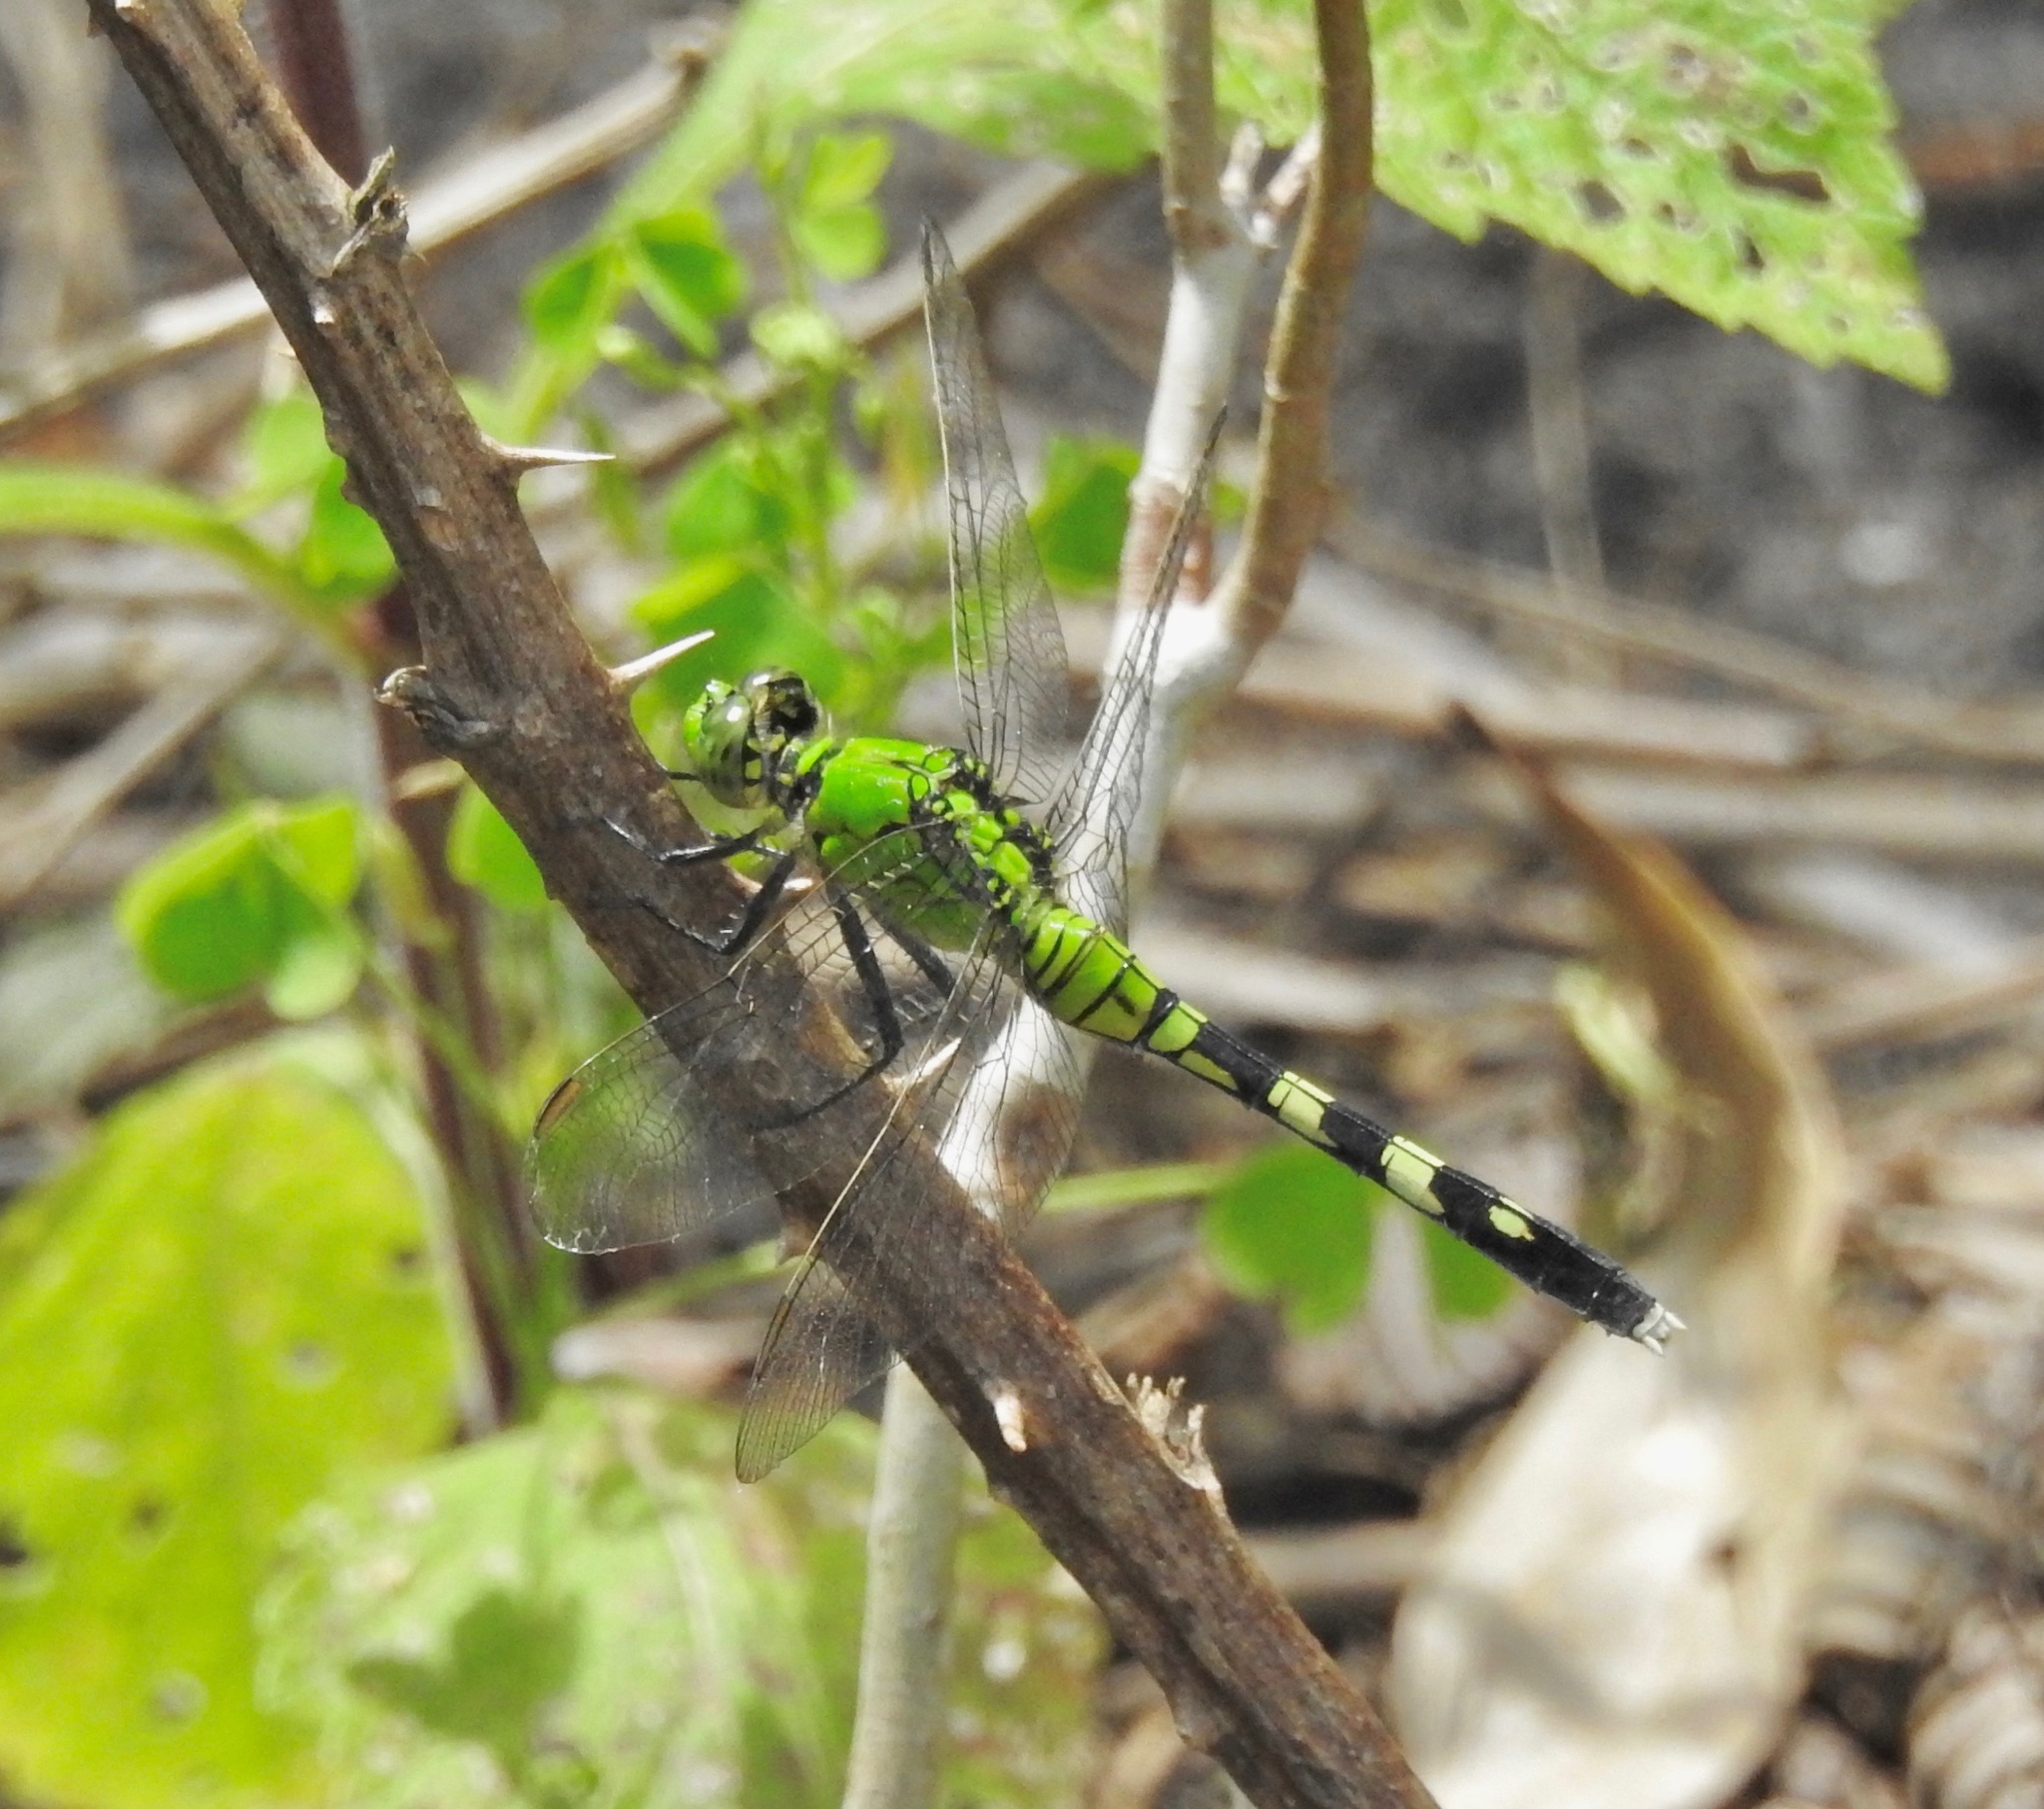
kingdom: Animalia
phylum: Arthropoda
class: Insecta
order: Odonata
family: Libellulidae
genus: Erythemis
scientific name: Erythemis simplicicollis
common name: Eastern pondhawk
